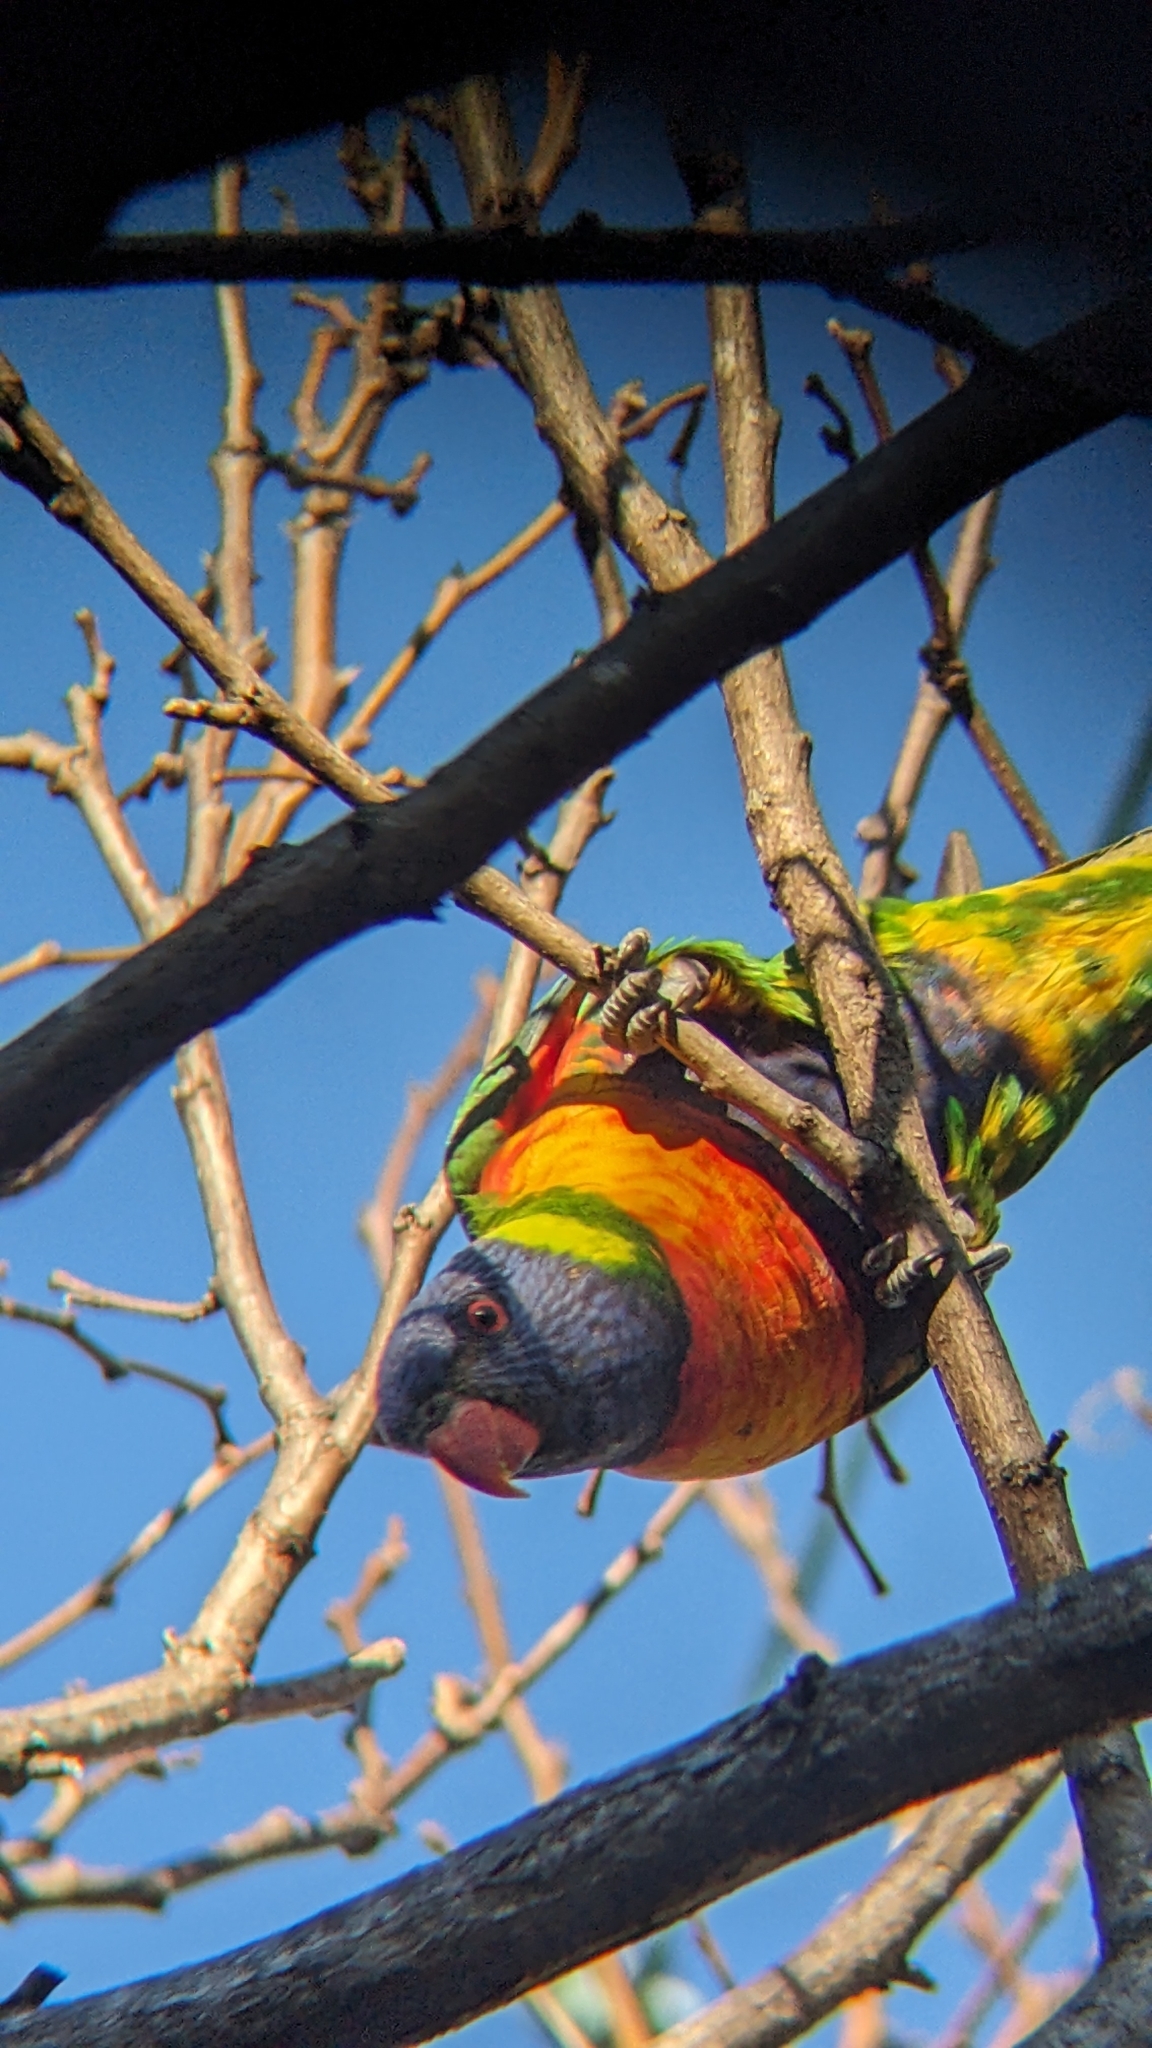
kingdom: Animalia
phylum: Chordata
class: Aves
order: Psittaciformes
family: Psittacidae
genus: Trichoglossus
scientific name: Trichoglossus haematodus
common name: Coconut lorikeet
